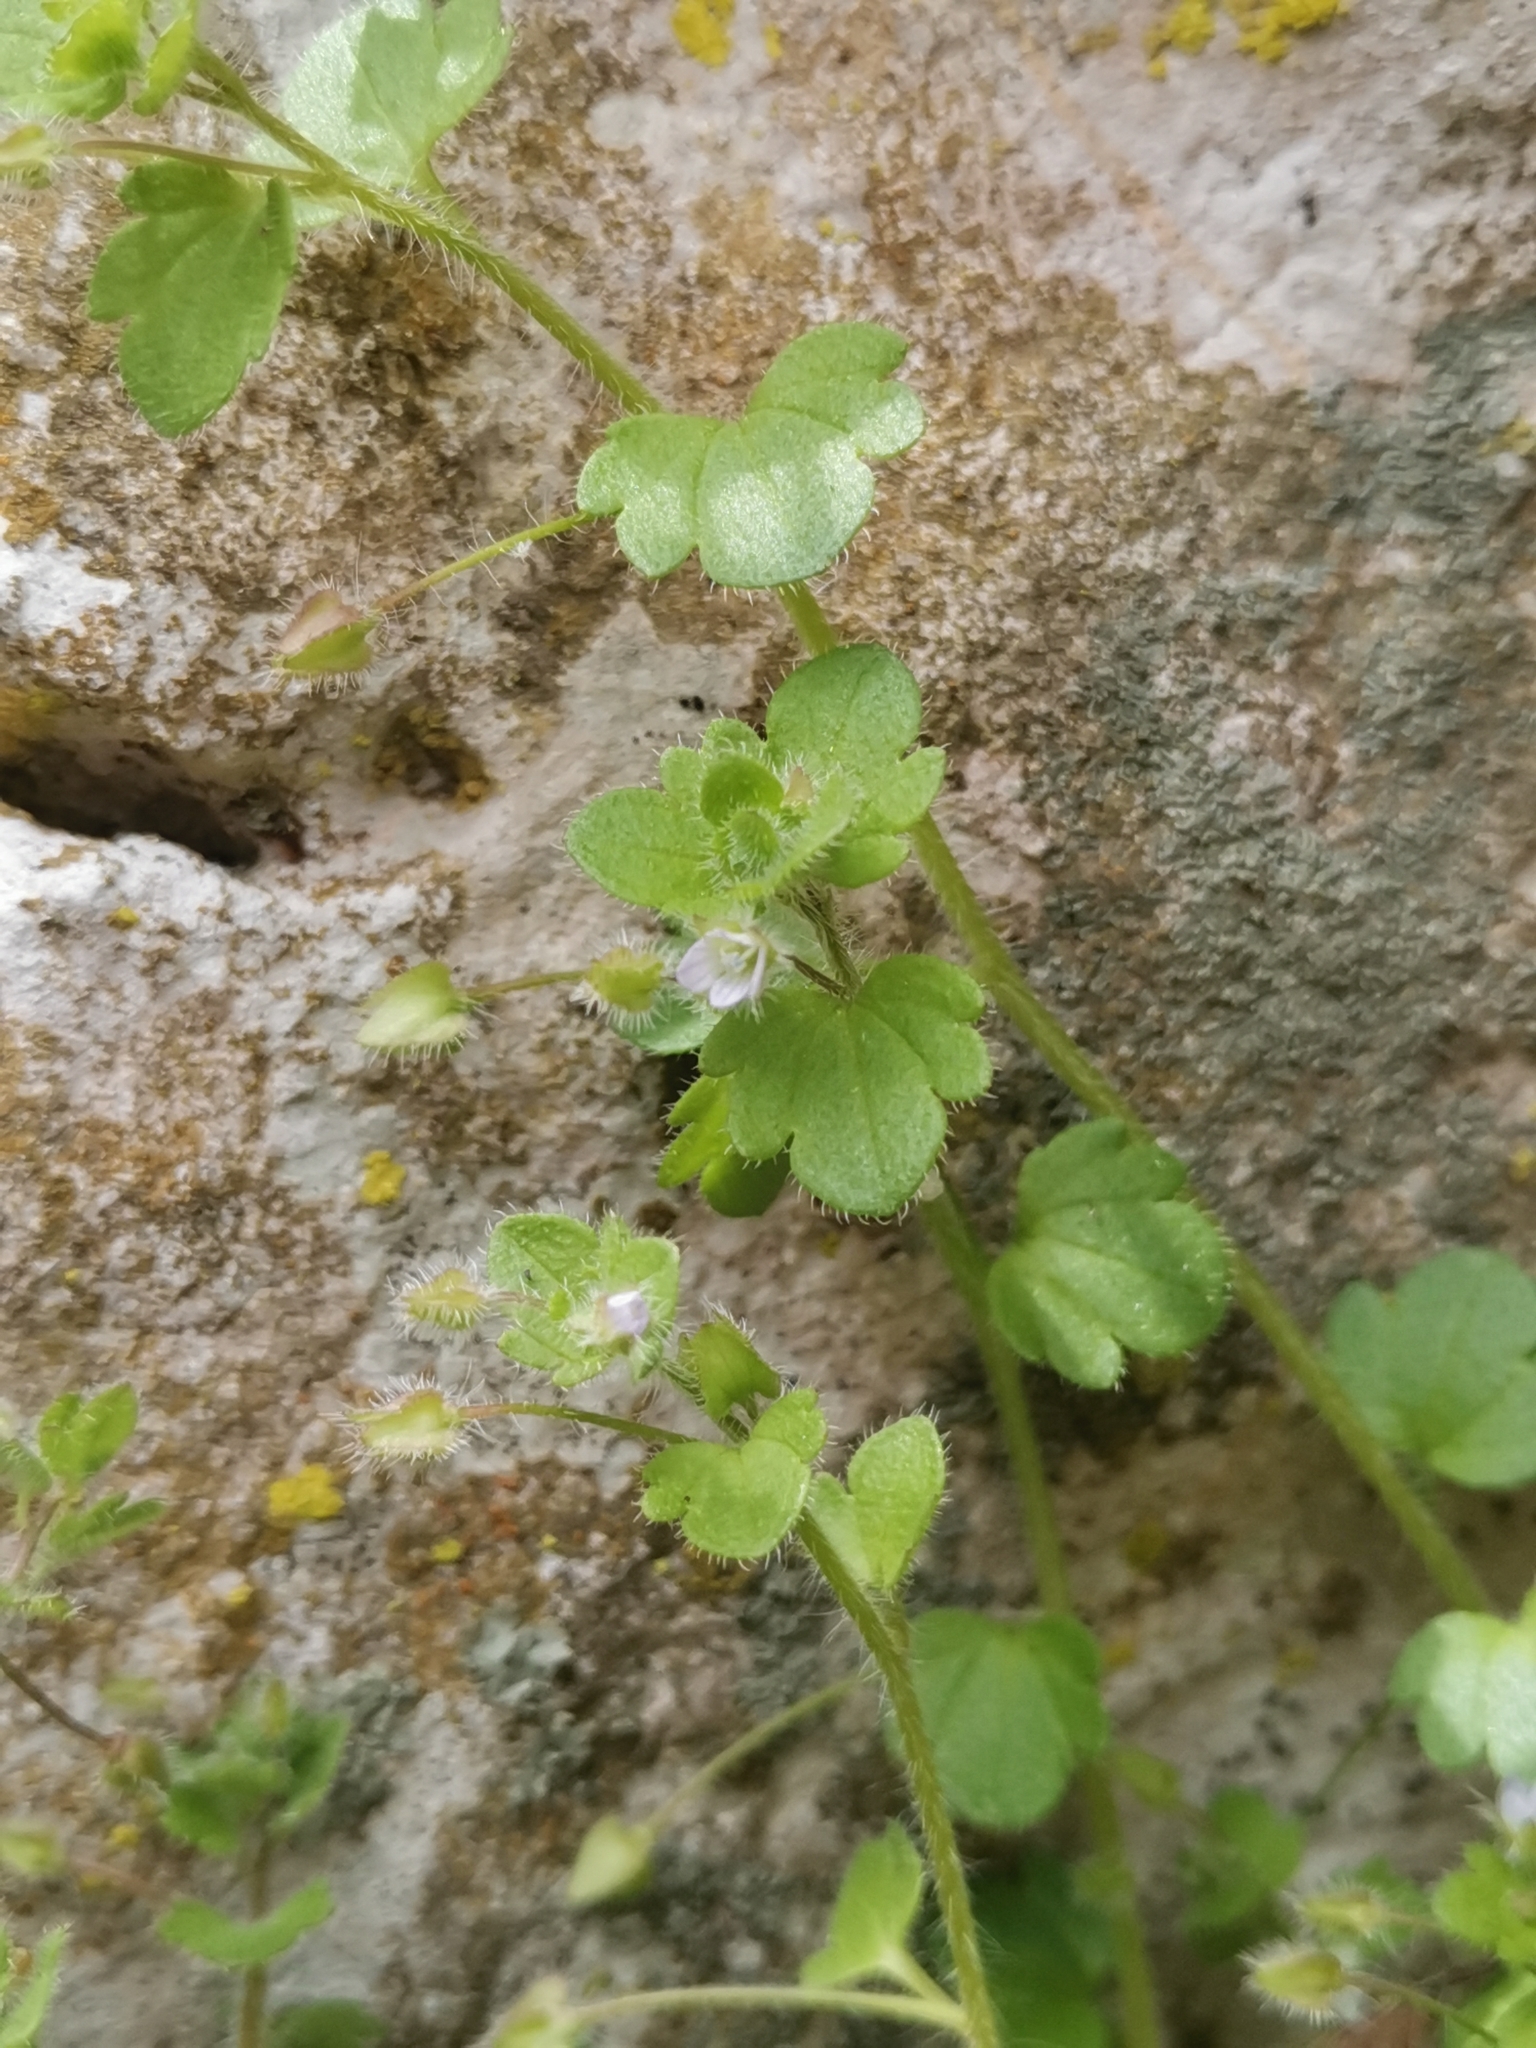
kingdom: Plantae
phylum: Tracheophyta
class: Magnoliopsida
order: Lamiales
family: Plantaginaceae
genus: Veronica
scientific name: Veronica sublobata
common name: False ivy-leaved speedwell
